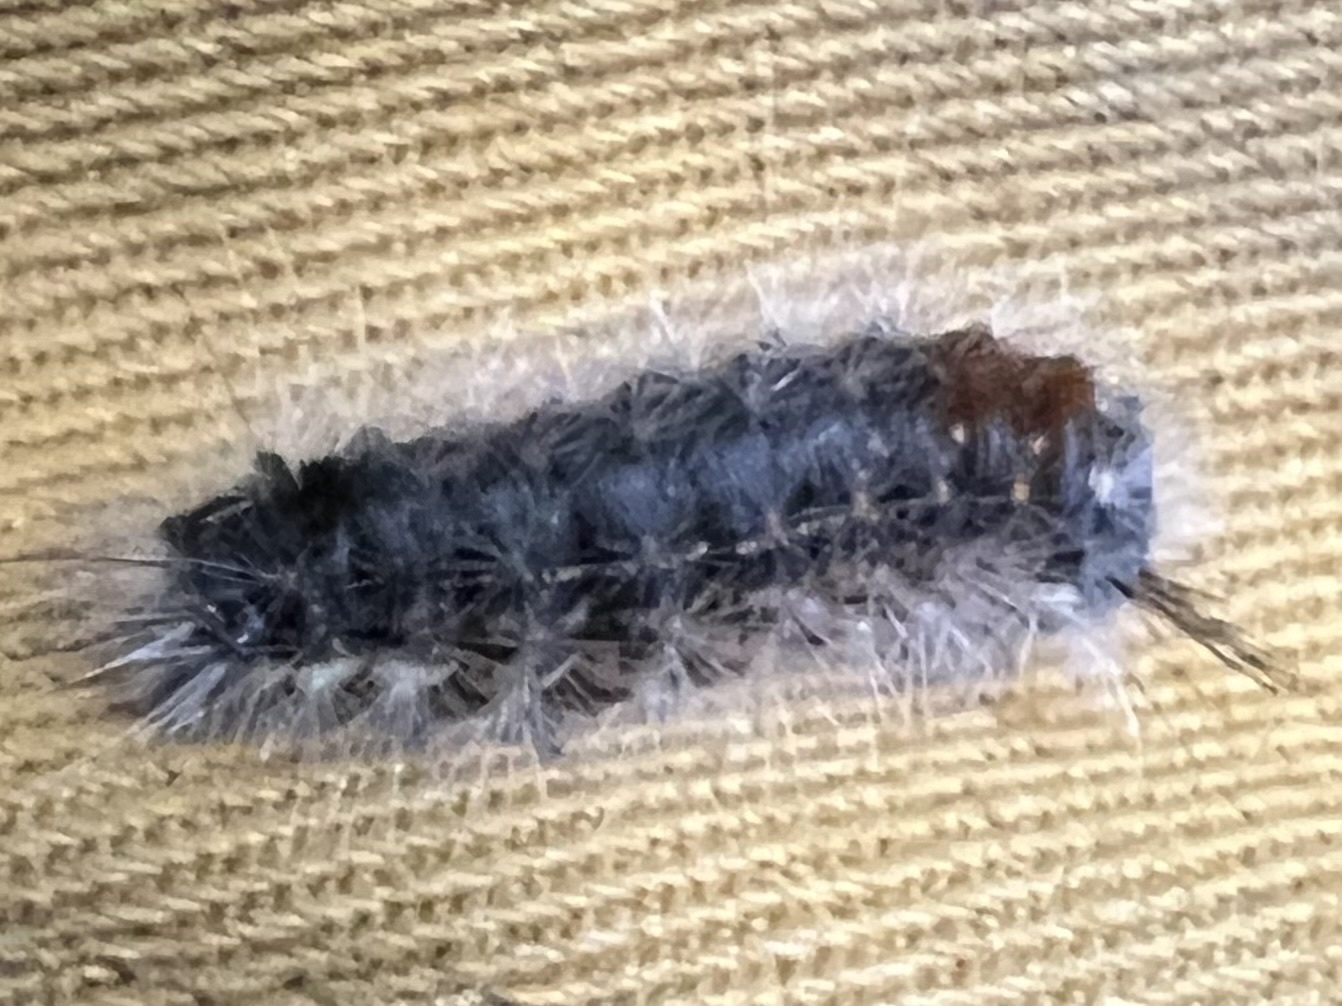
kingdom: Animalia
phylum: Arthropoda
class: Insecta
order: Lepidoptera
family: Noctuidae
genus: Colocasia
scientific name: Colocasia coryli
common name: Nut-tree tussock
